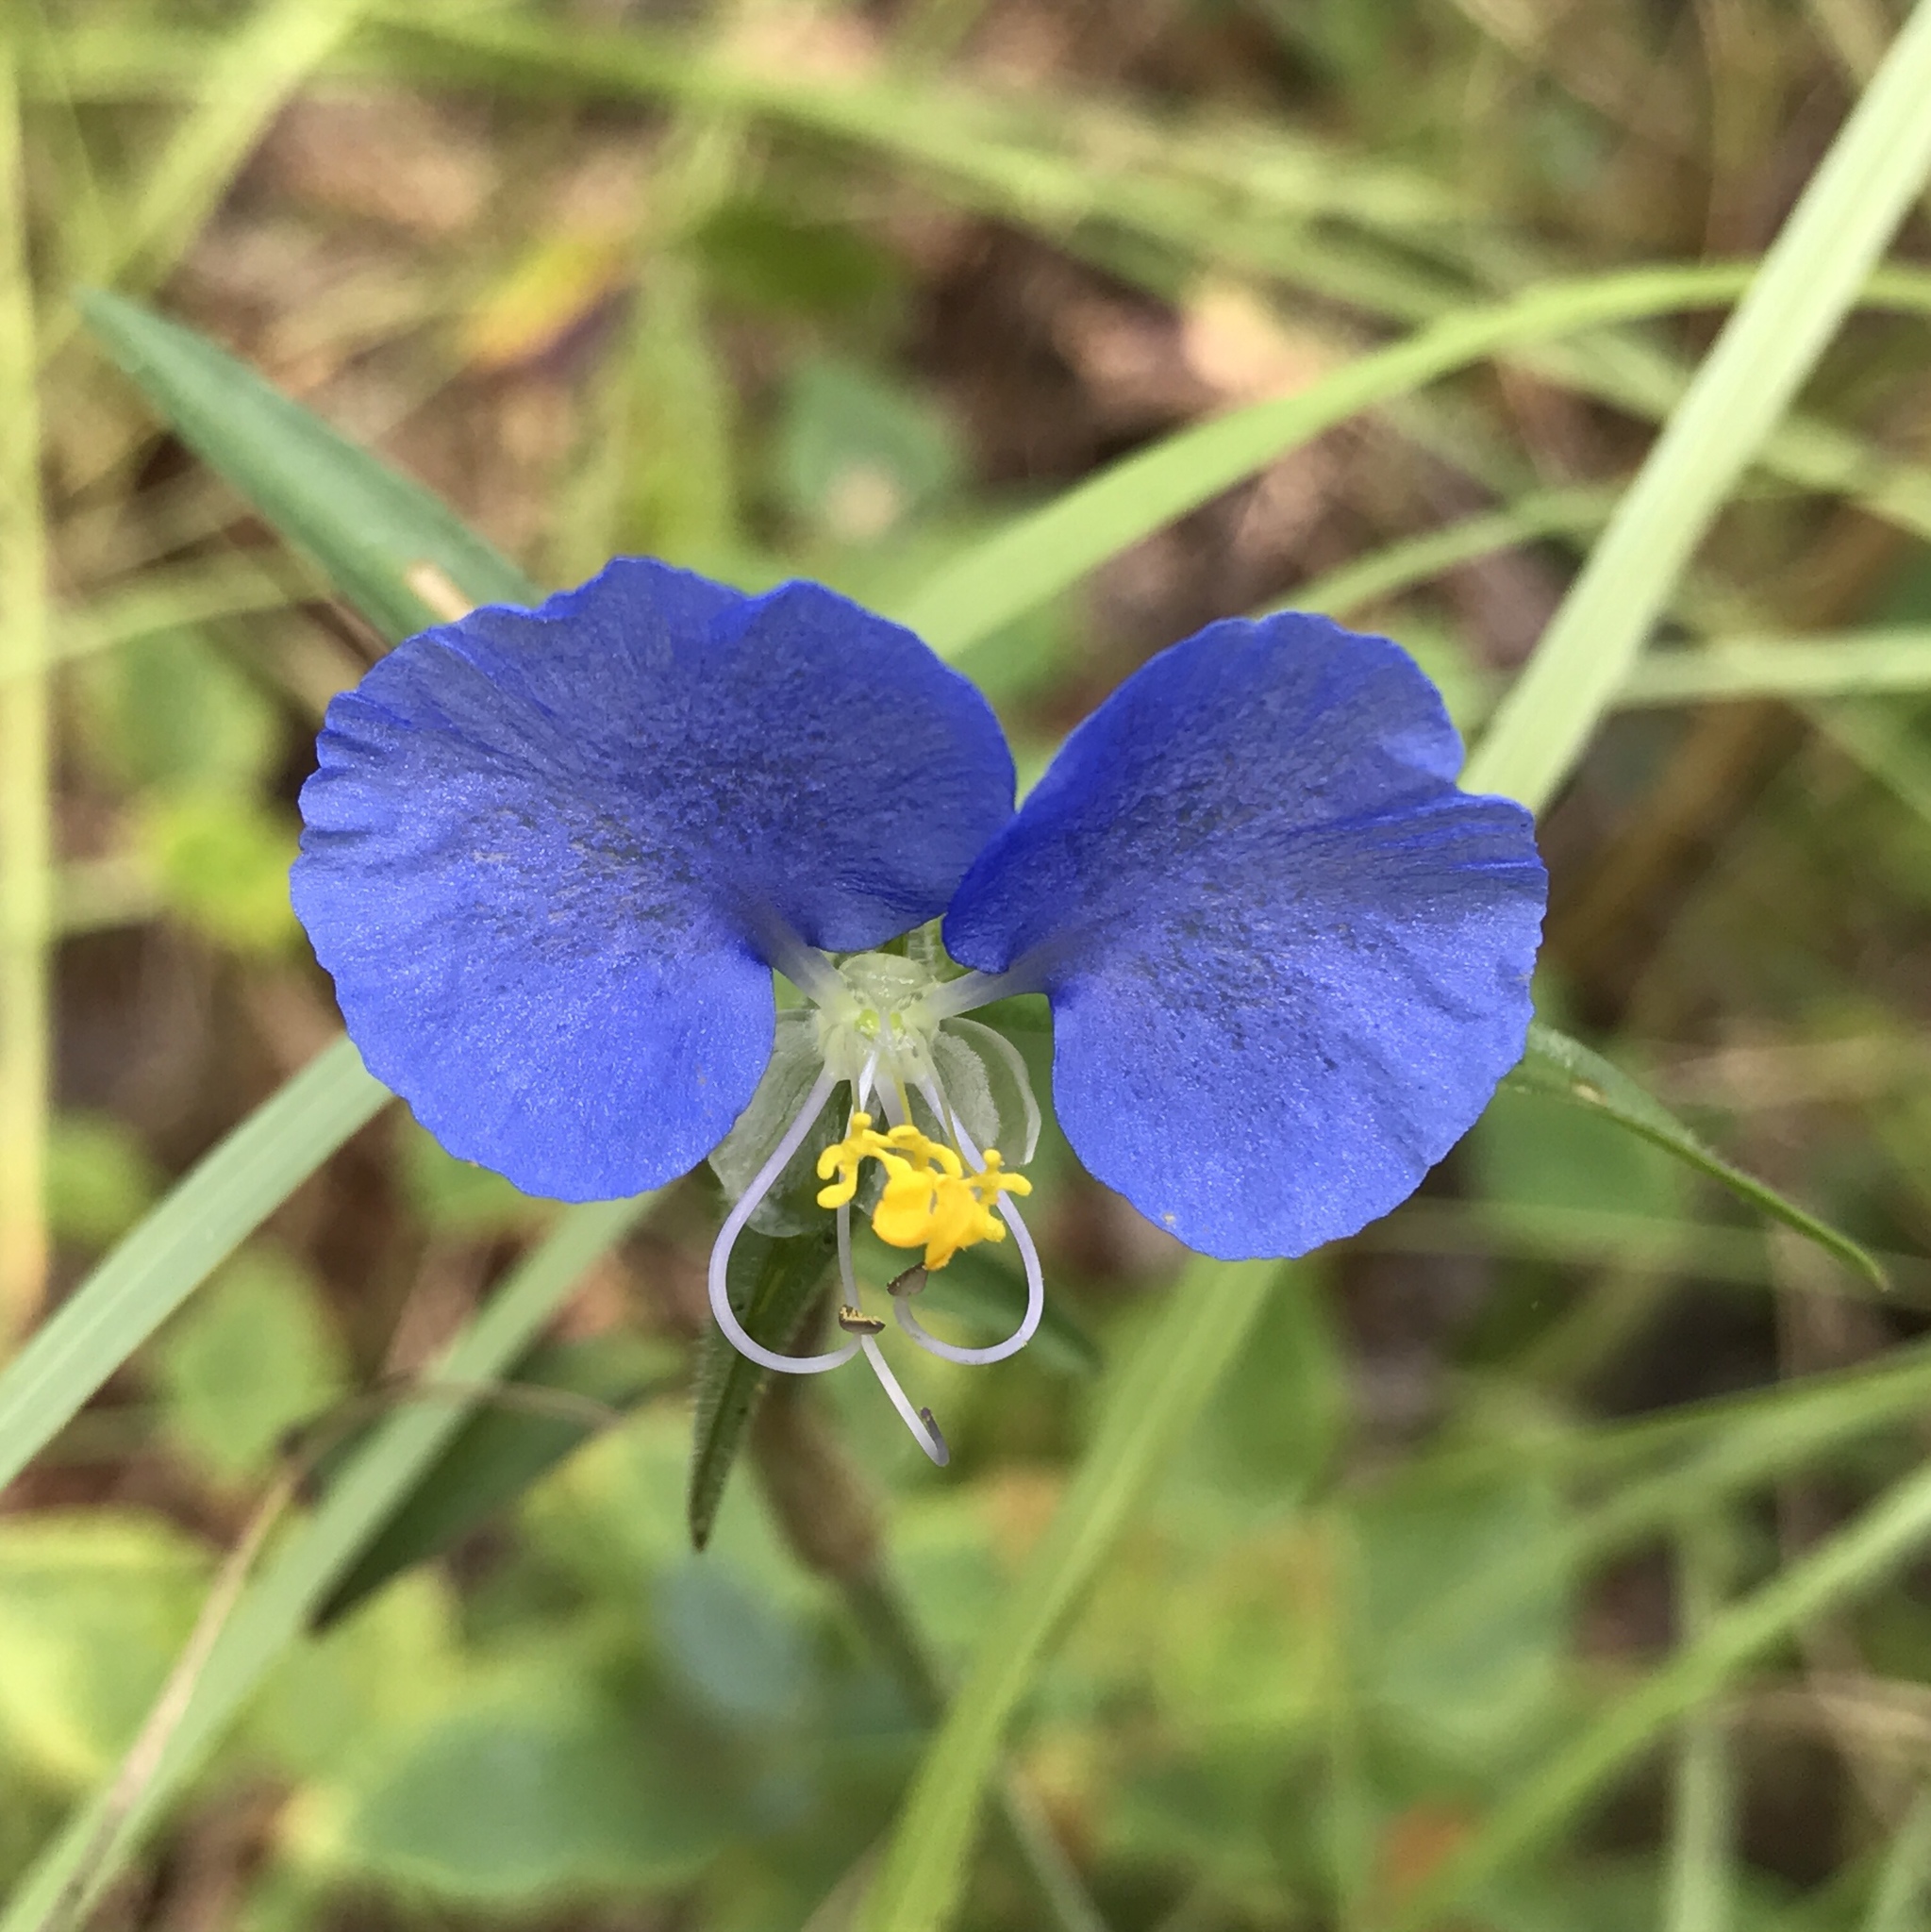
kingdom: Plantae
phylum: Tracheophyta
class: Liliopsida
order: Commelinales
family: Commelinaceae
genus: Commelina
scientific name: Commelina erecta
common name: Blousel blommetjie
